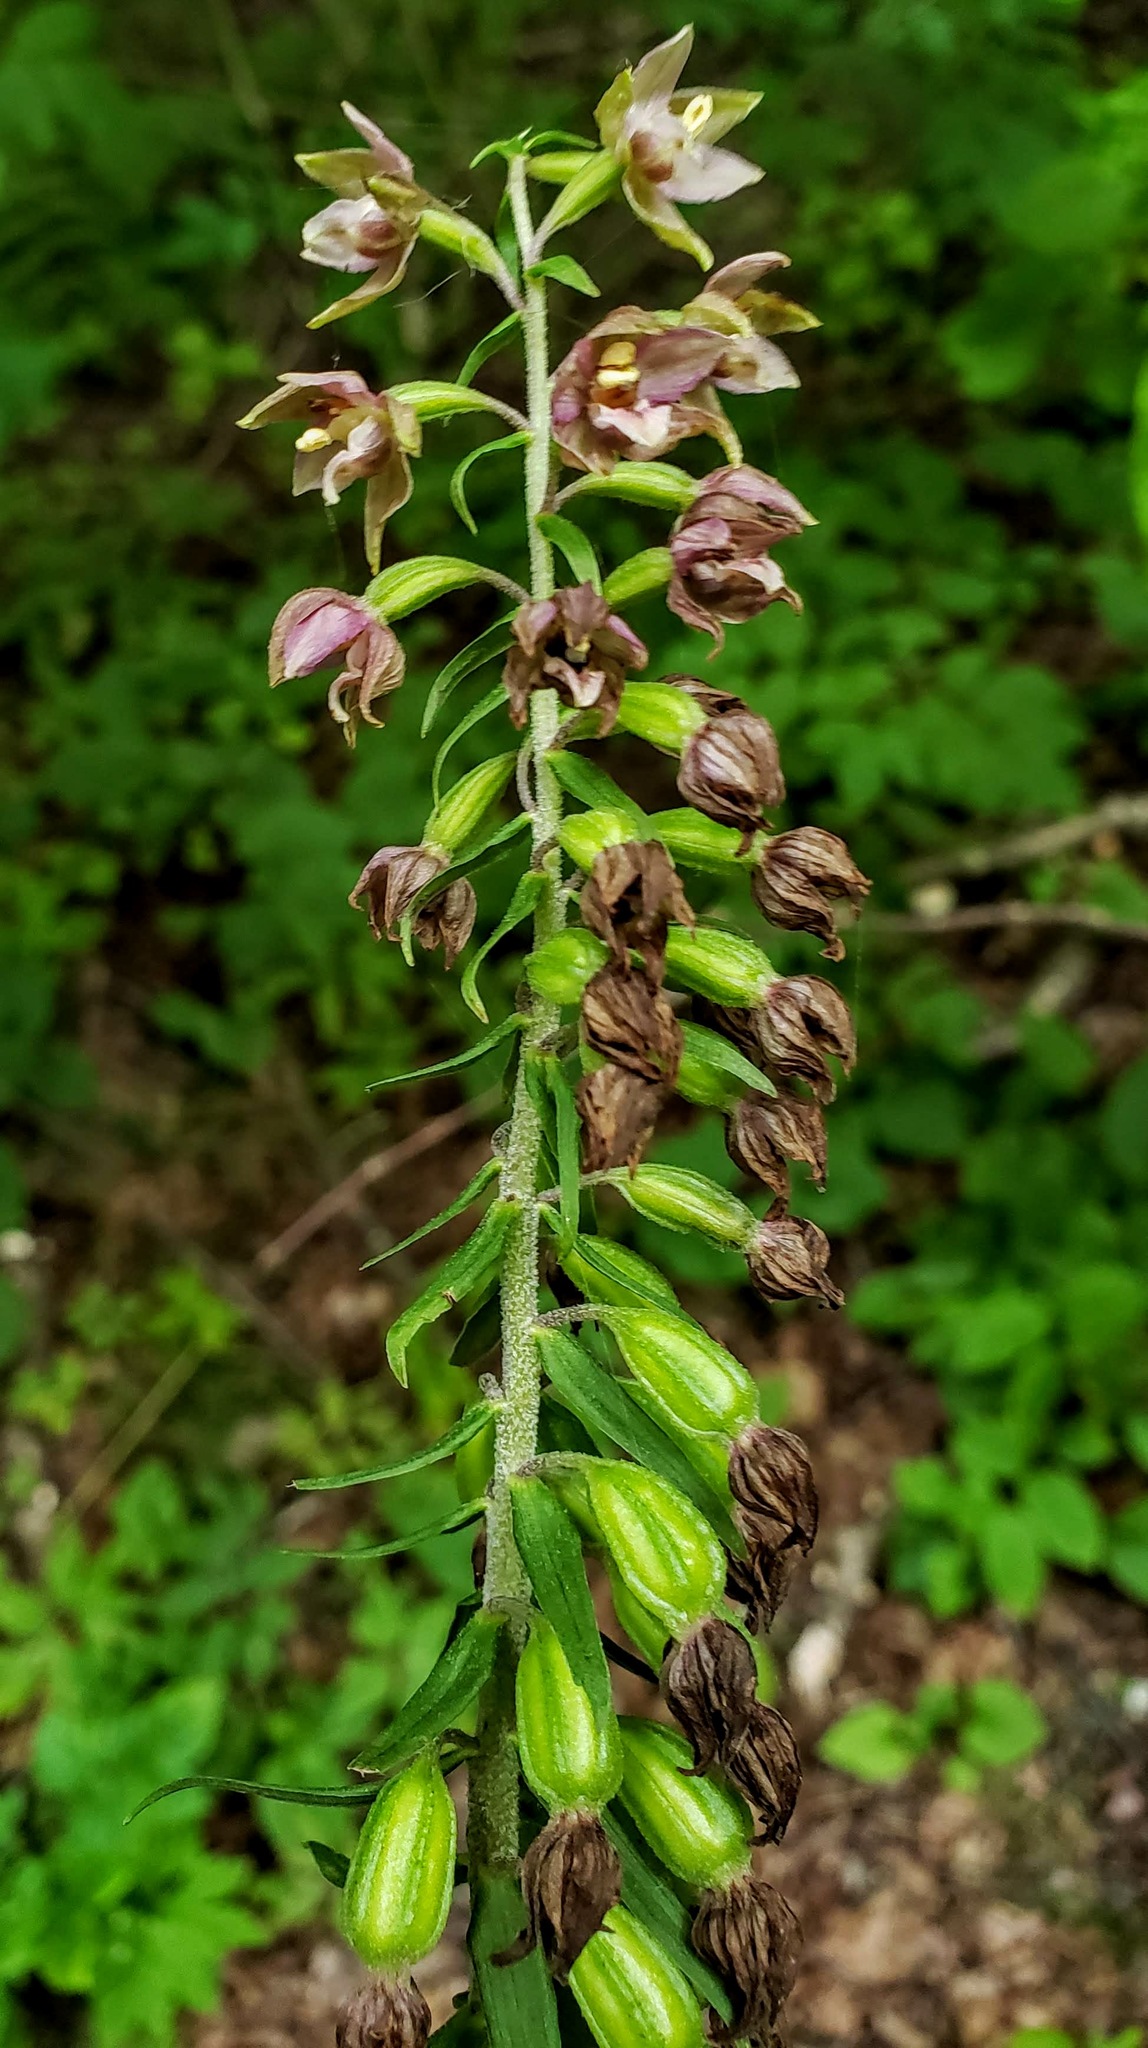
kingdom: Plantae
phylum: Tracheophyta
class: Liliopsida
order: Asparagales
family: Orchidaceae
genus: Epipactis
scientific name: Epipactis helleborine
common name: Broad-leaved helleborine
